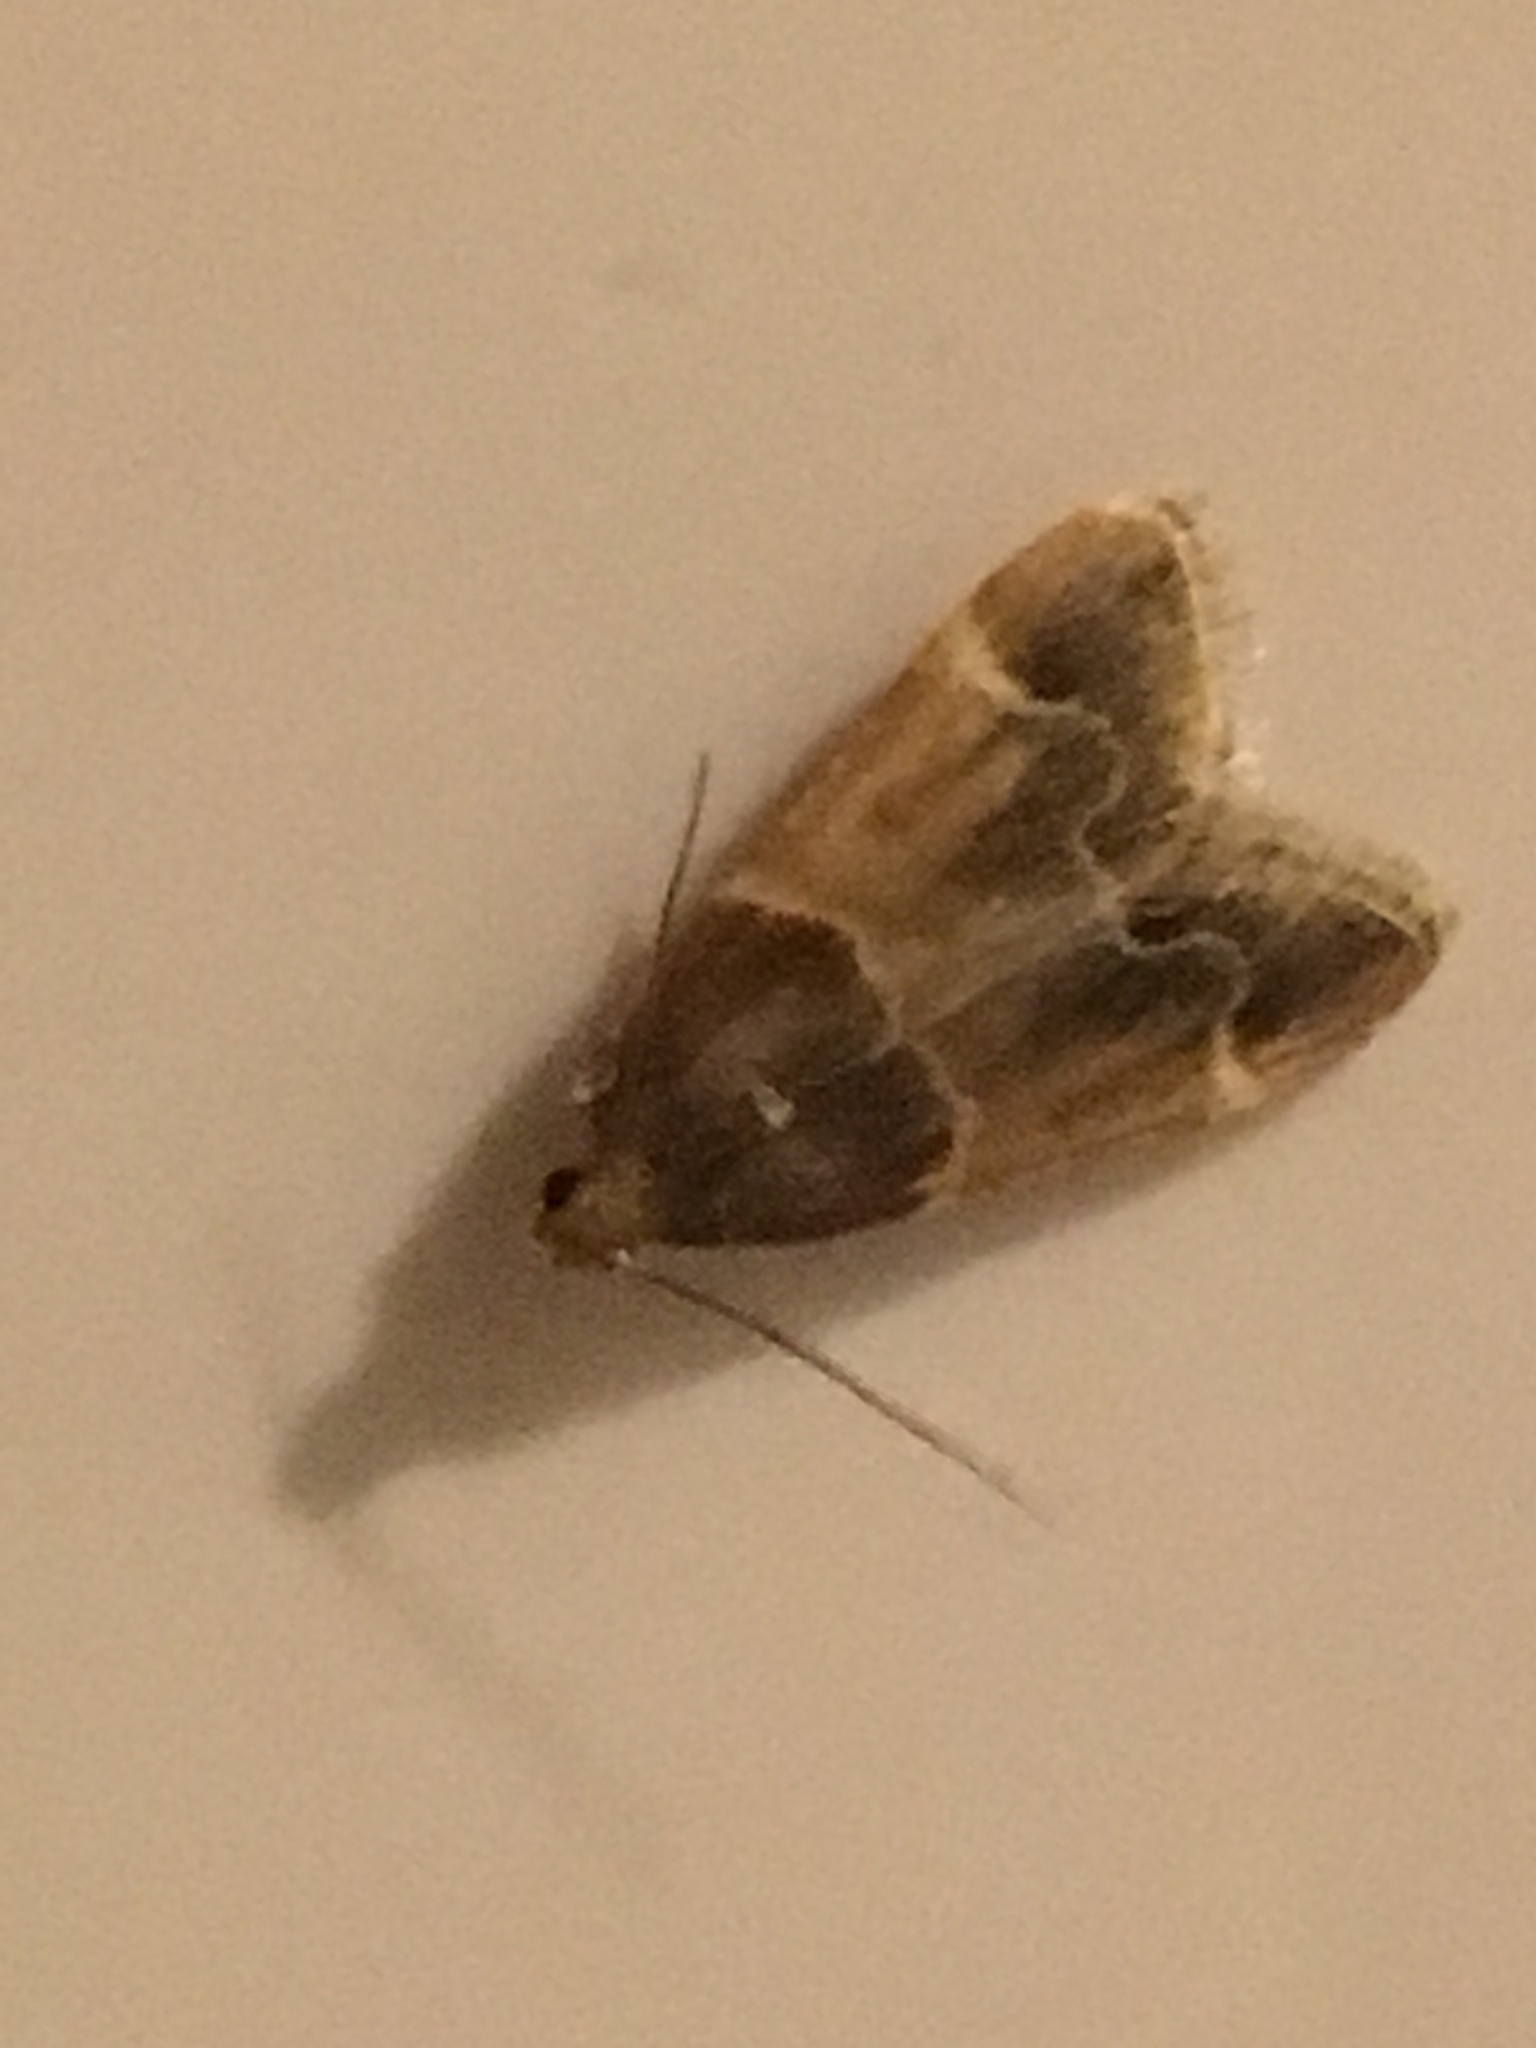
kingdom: Animalia
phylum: Arthropoda
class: Insecta
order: Lepidoptera
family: Pyralidae
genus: Pyralis
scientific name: Pyralis farinalis
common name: Meal moth
